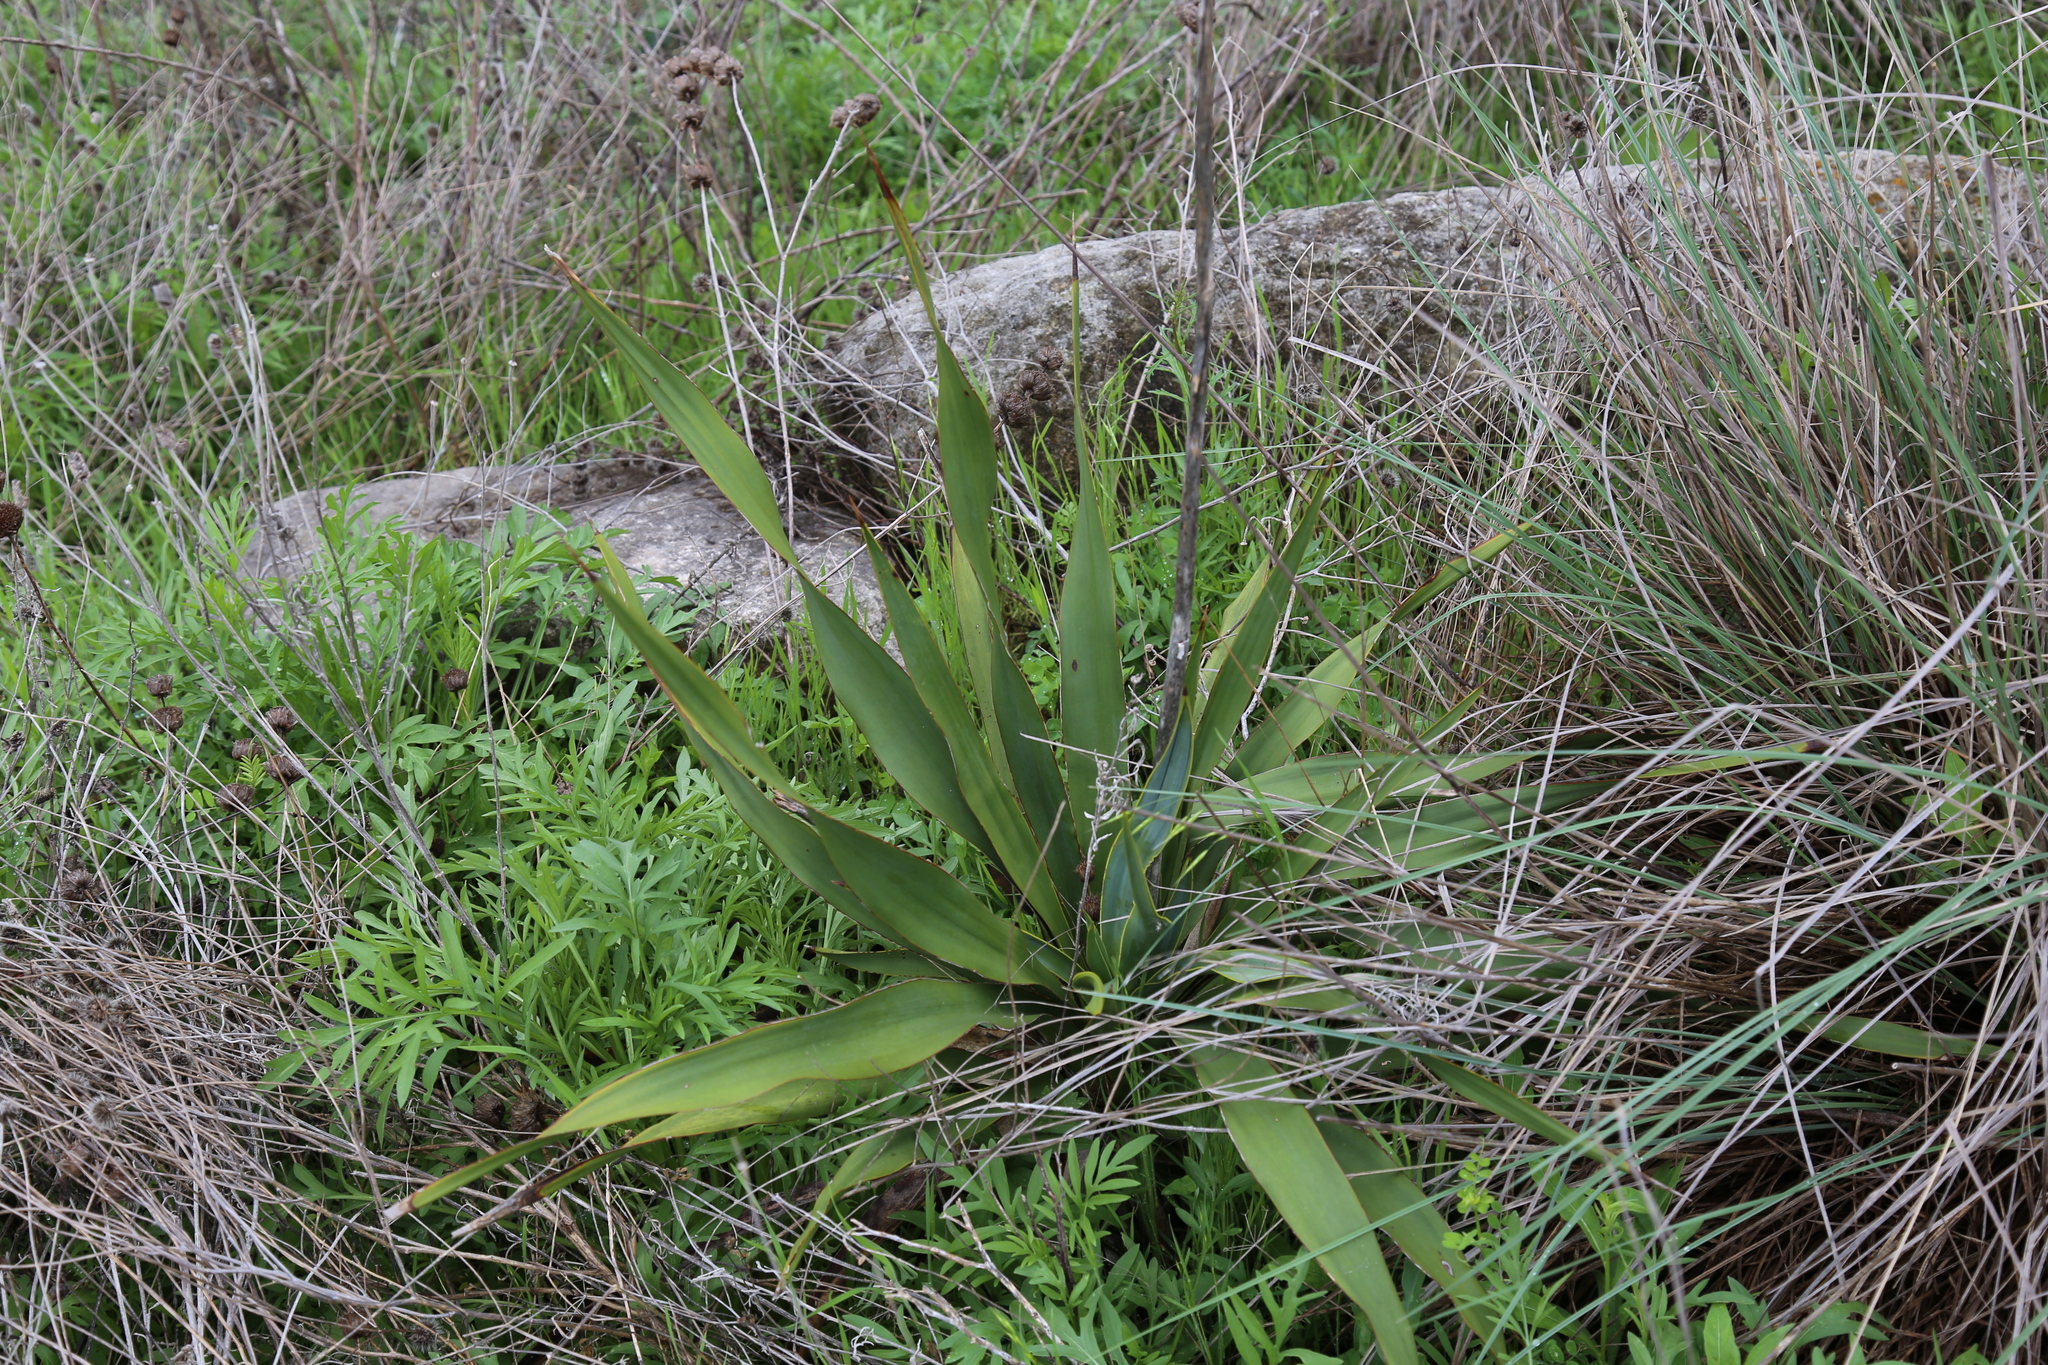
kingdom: Plantae
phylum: Tracheophyta
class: Liliopsida
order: Asparagales
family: Asparagaceae
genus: Yucca
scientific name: Yucca rupicola
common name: Twisted-leaf spanish-dagger
